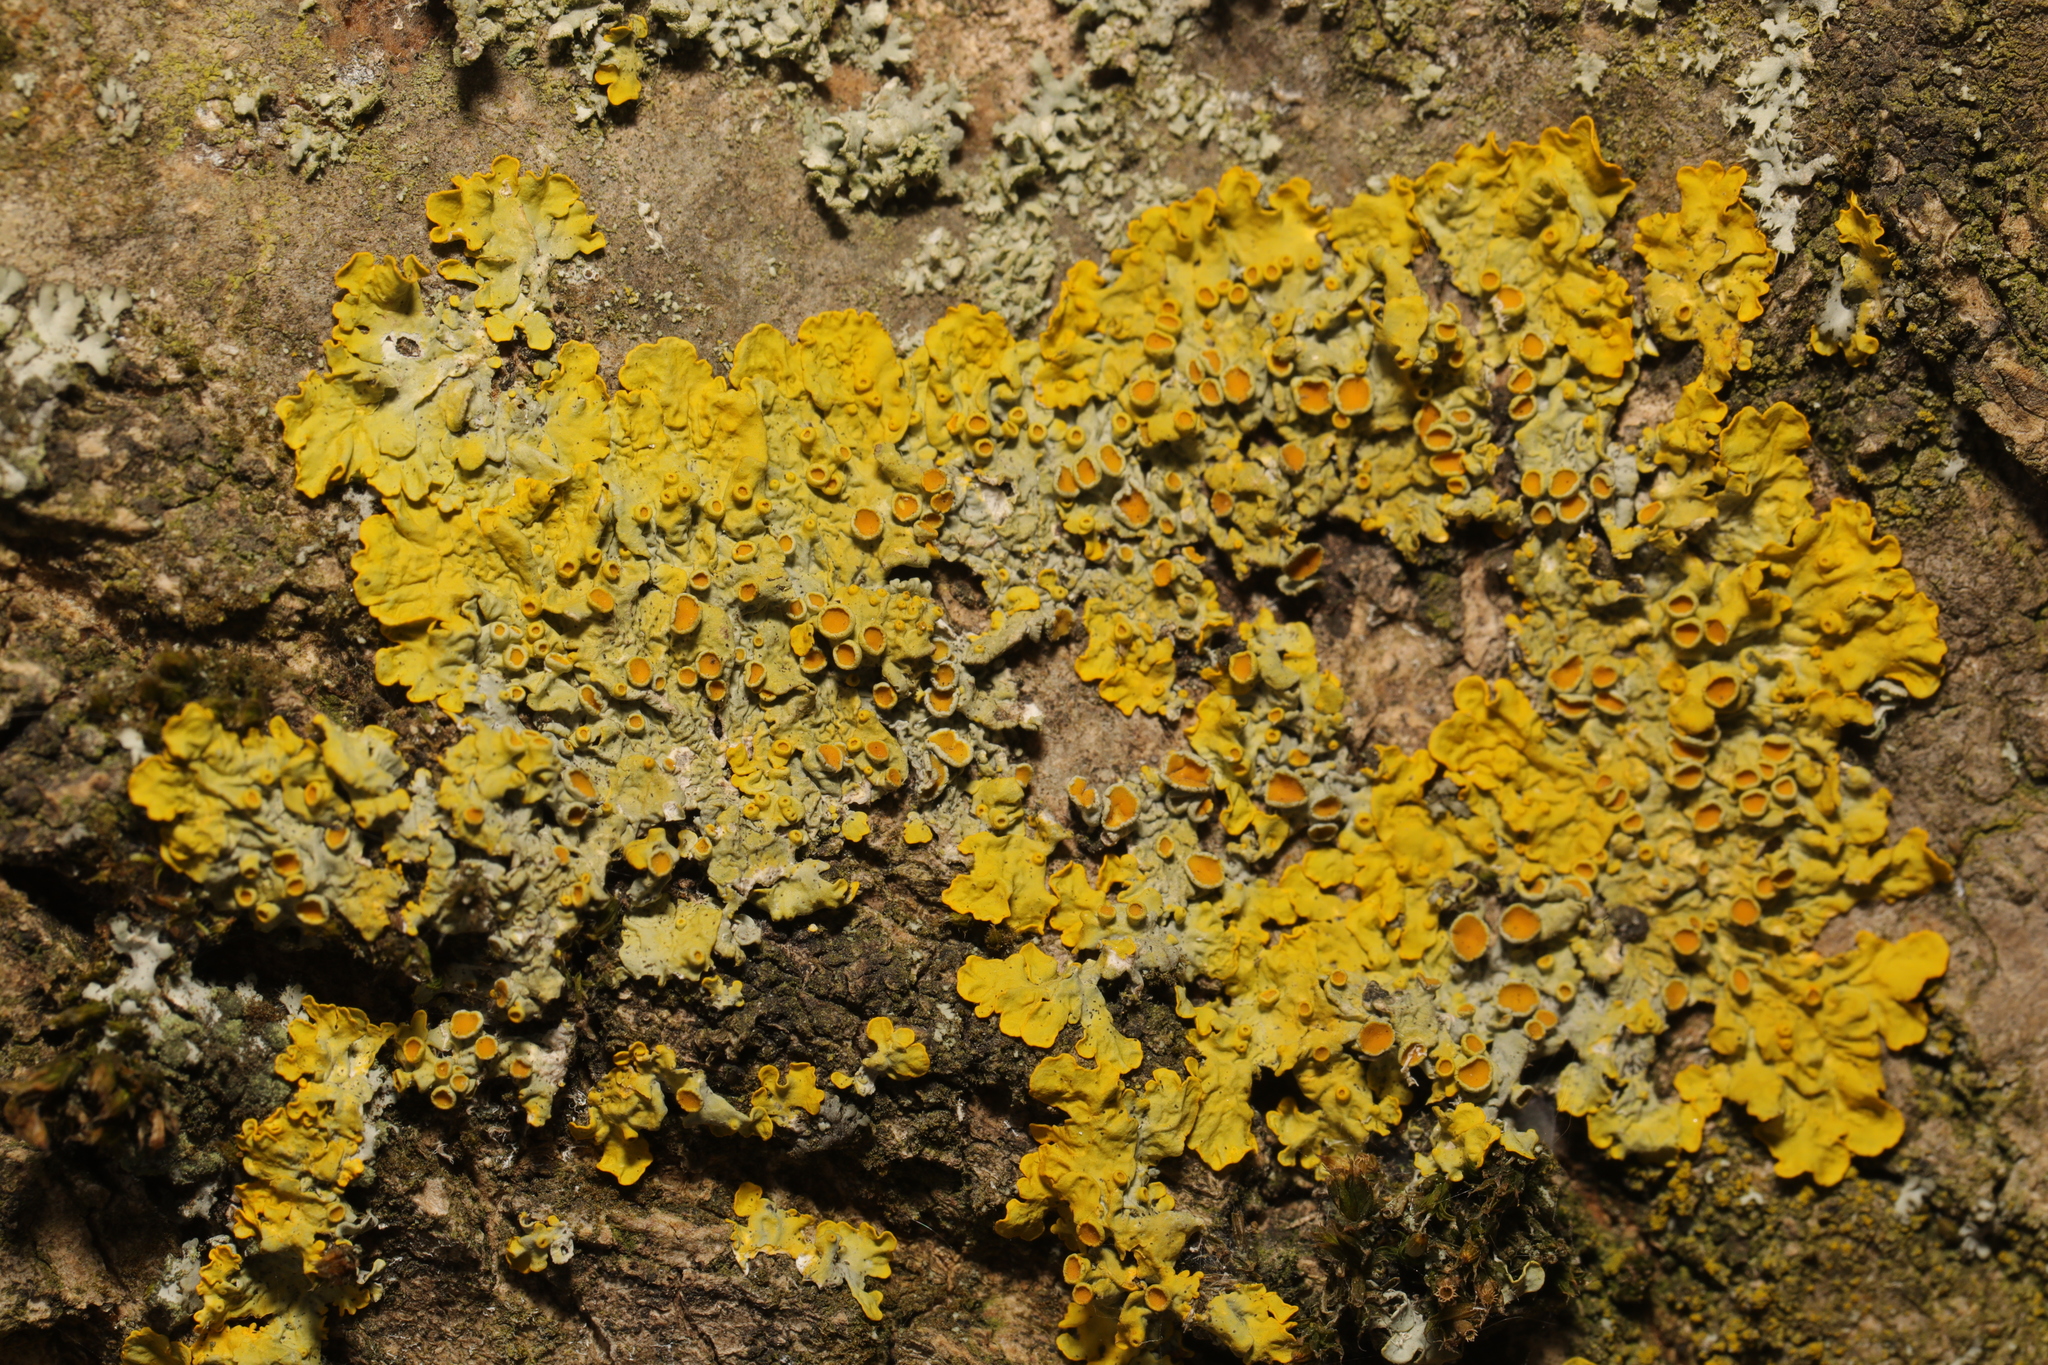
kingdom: Fungi
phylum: Ascomycota
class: Lecanoromycetes
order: Teloschistales
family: Teloschistaceae
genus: Xanthoria
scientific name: Xanthoria parietina
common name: Common orange lichen
